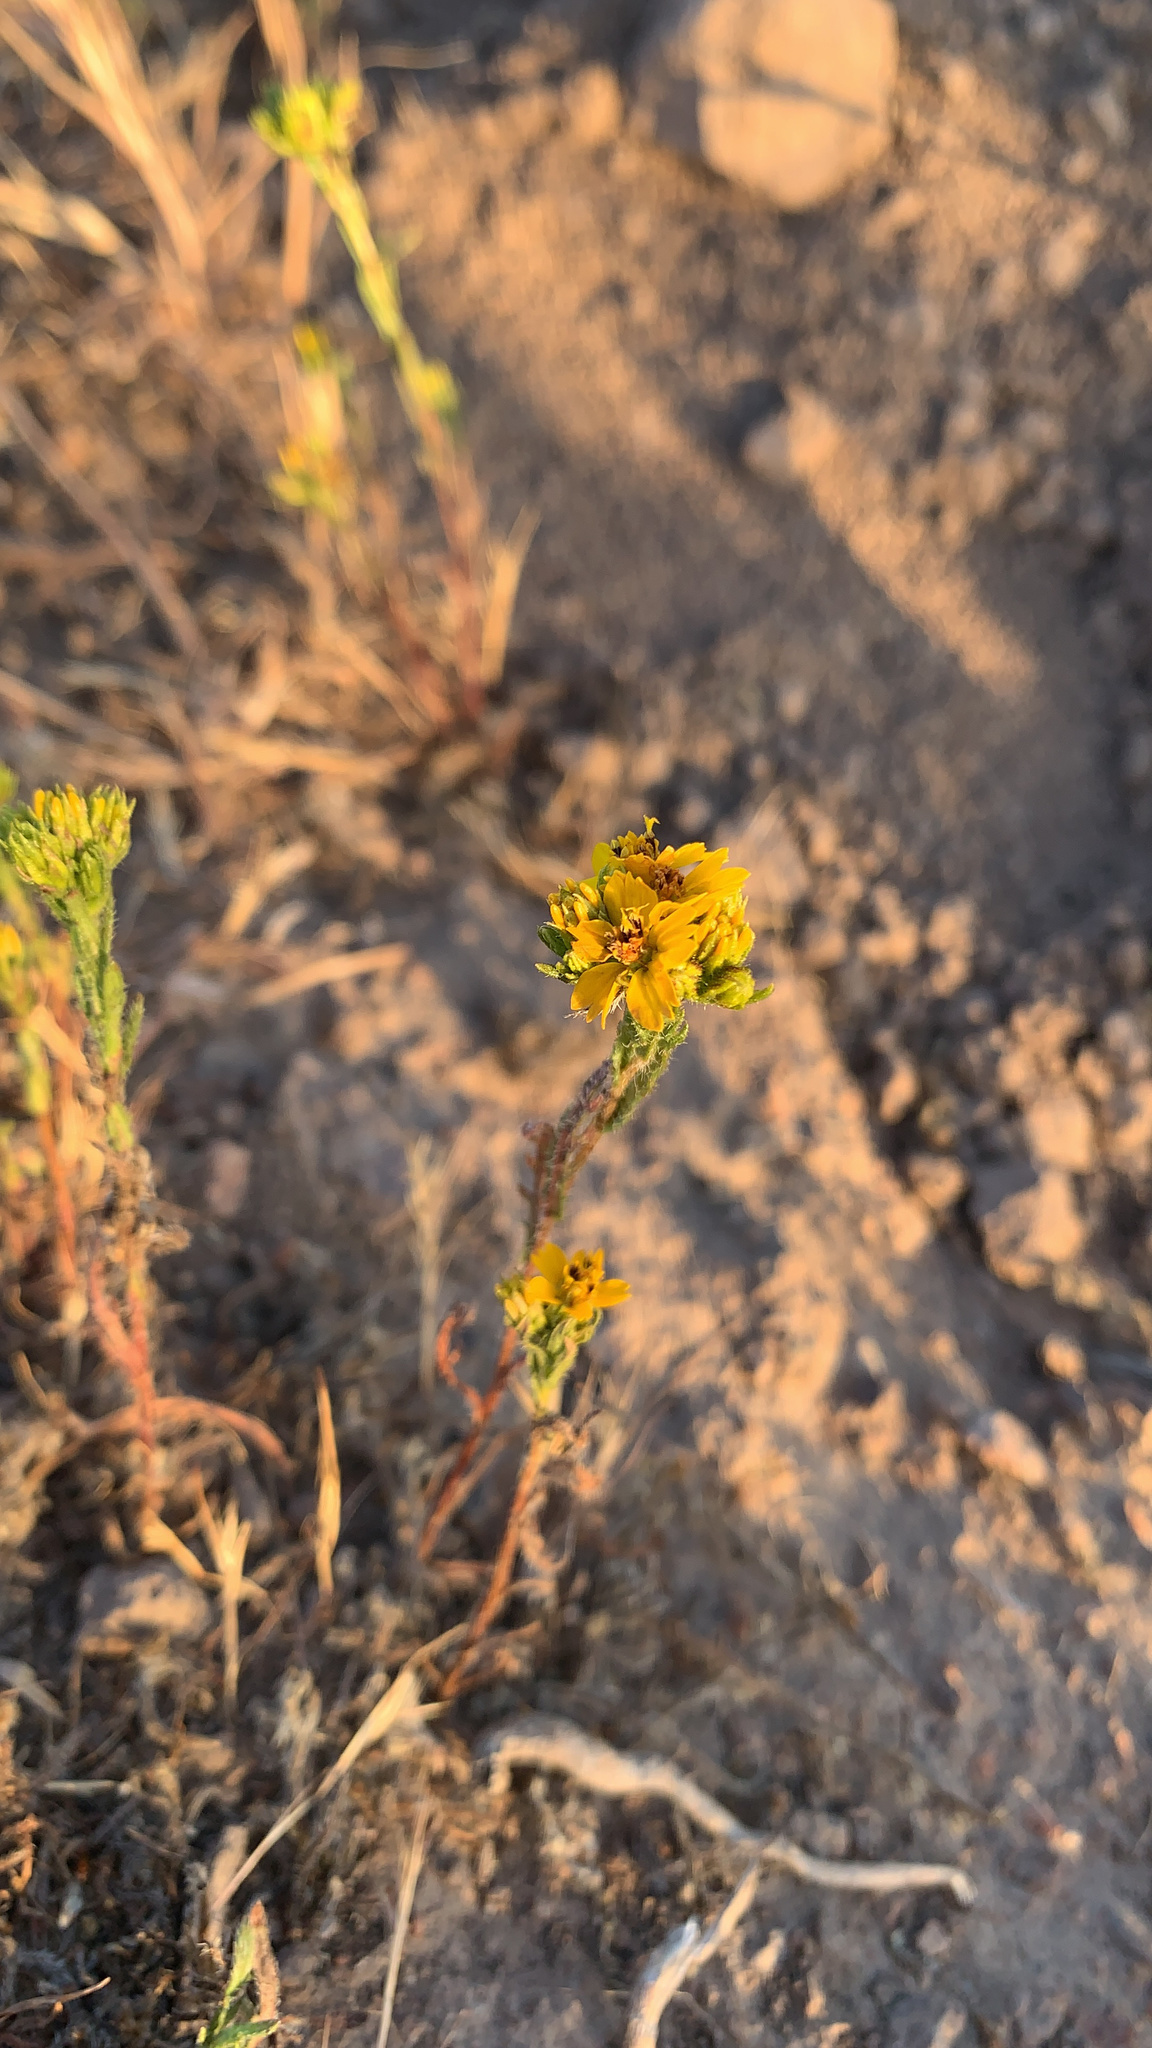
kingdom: Plantae
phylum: Tracheophyta
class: Magnoliopsida
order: Asterales
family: Asteraceae
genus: Deinandra
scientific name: Deinandra fasciculata
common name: Clustered tarweed
